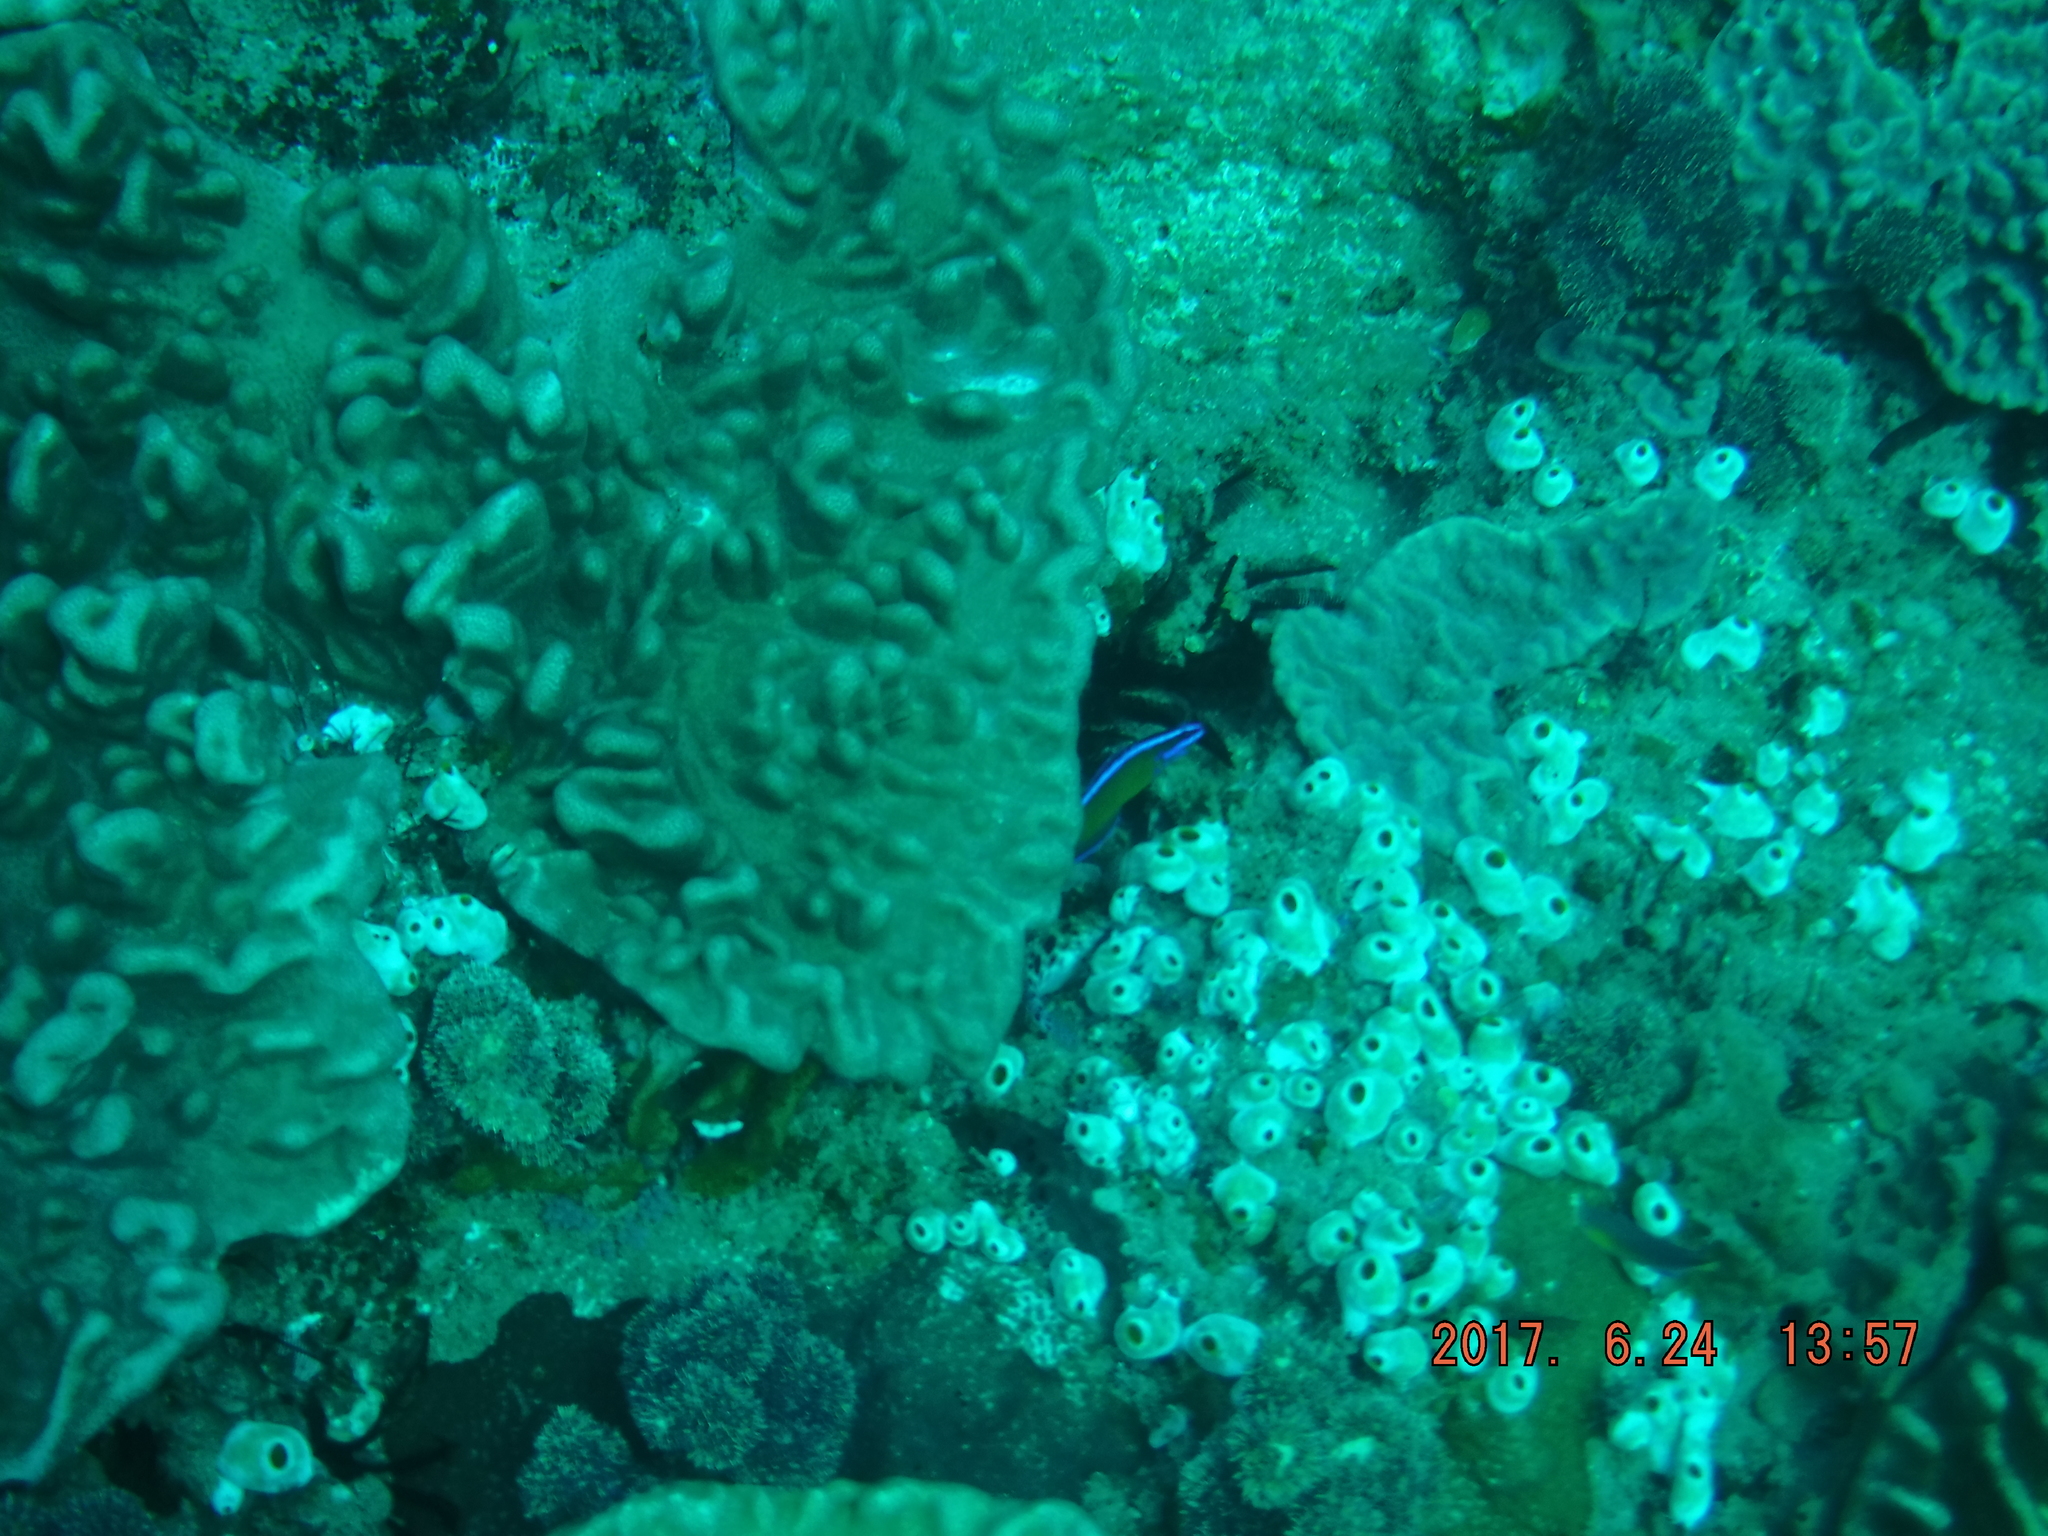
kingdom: Animalia
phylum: Chordata
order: Perciformes
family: Pseudochromidae
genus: Pseudochromis
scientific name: Pseudochromis dutoiti
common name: Dutoiti
